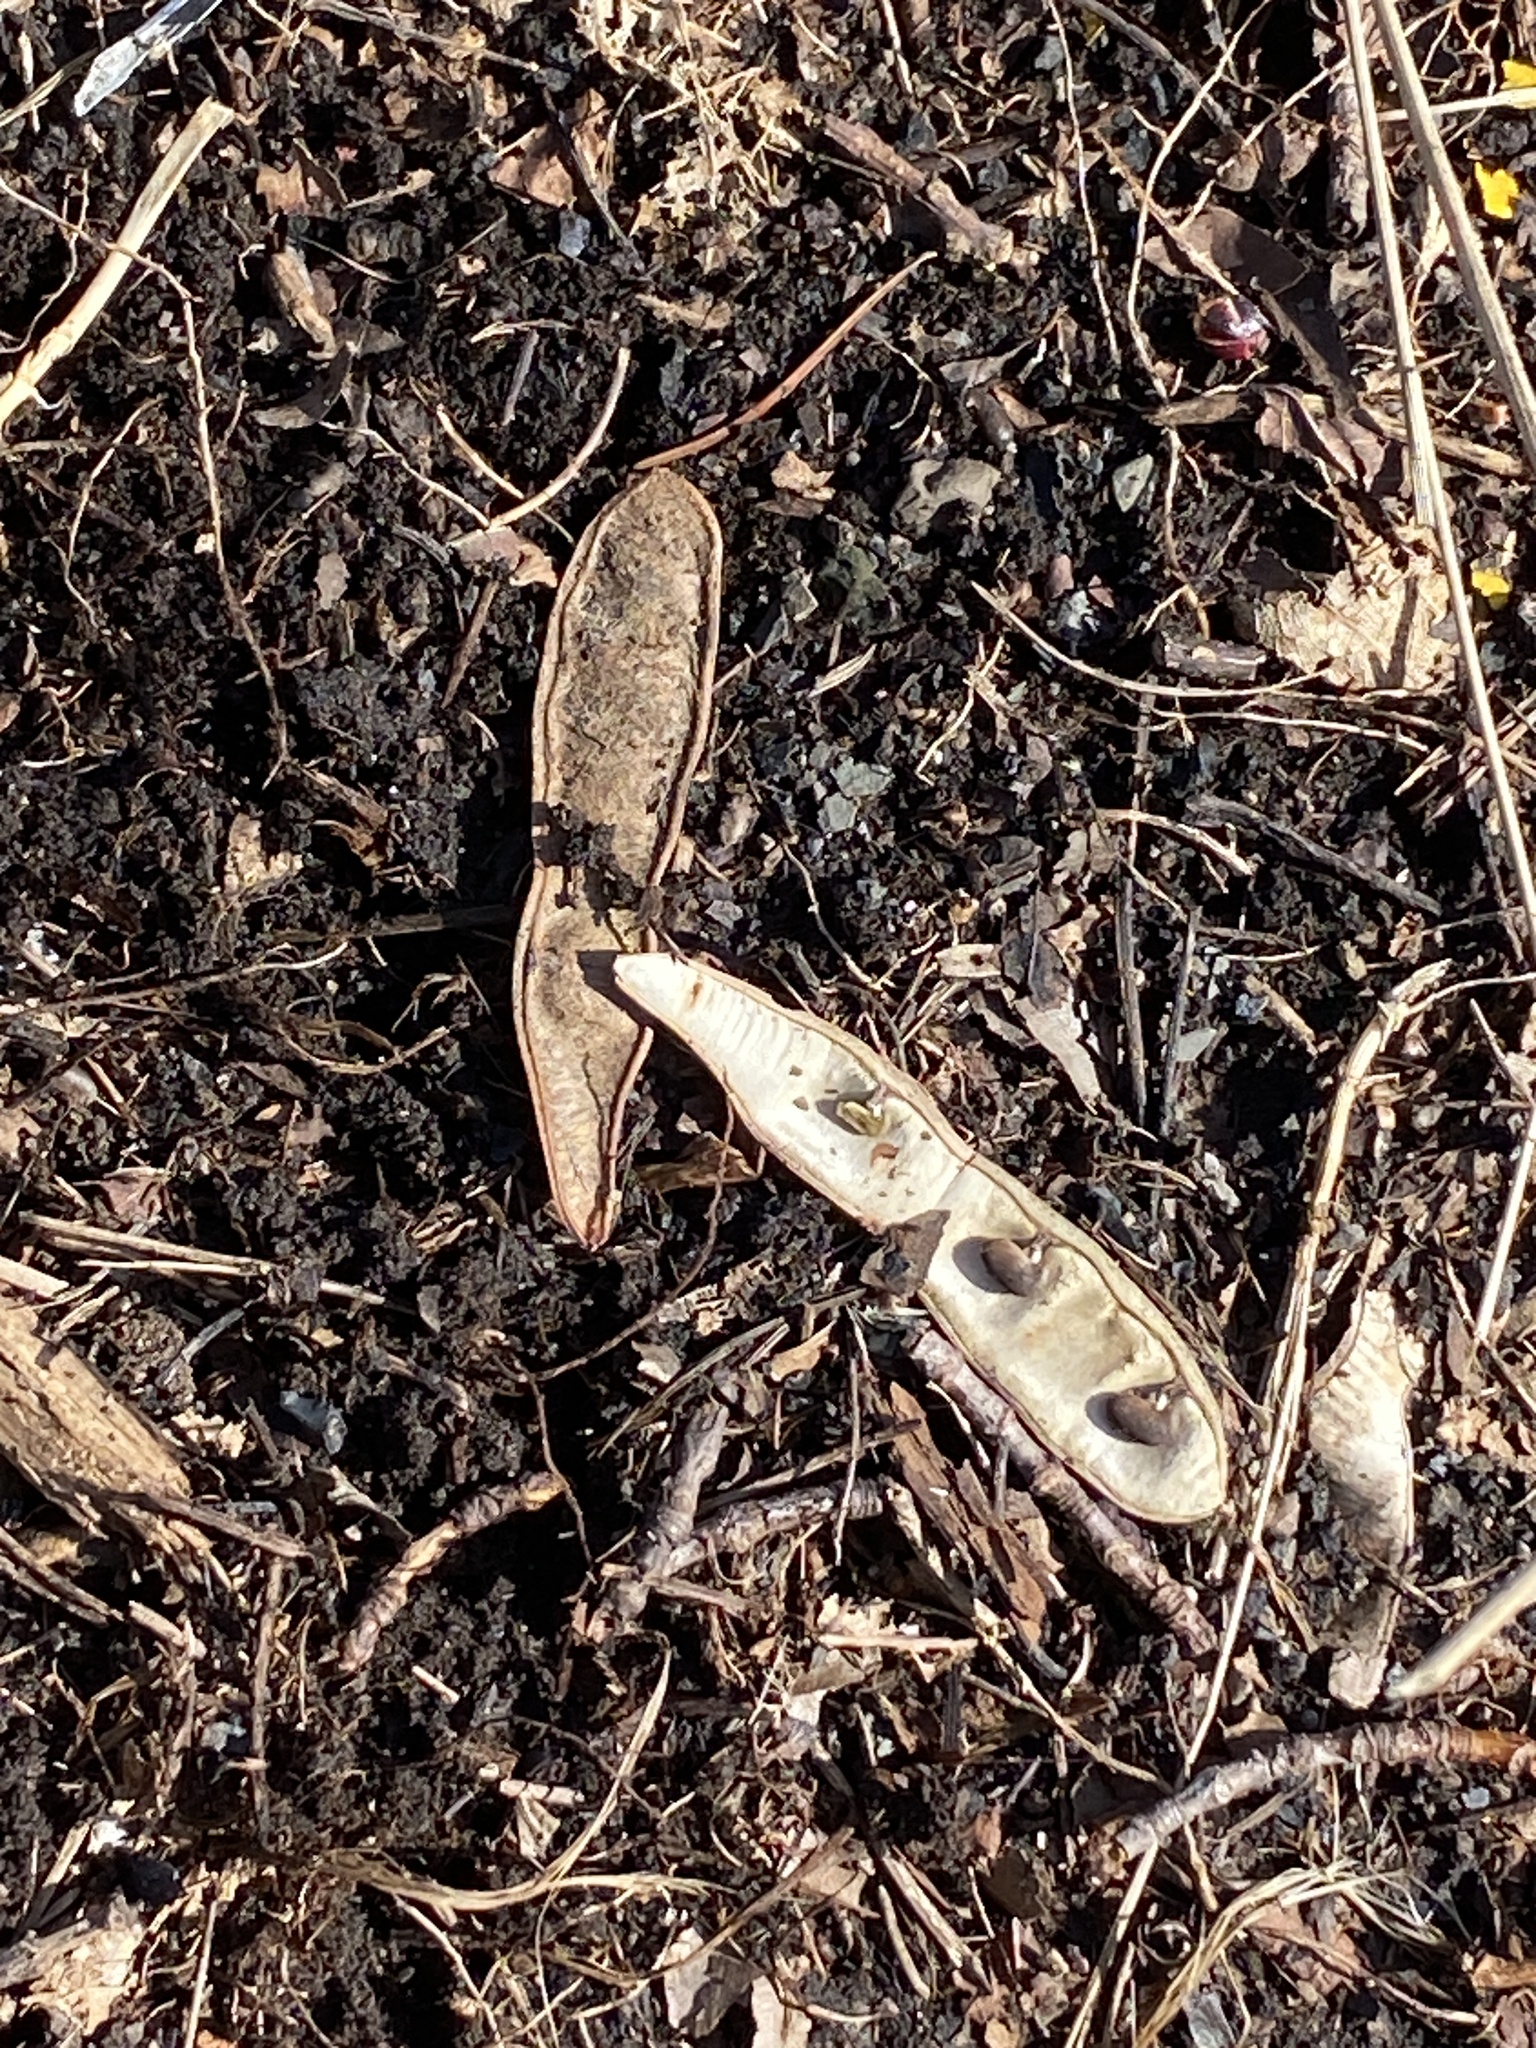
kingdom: Plantae
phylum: Tracheophyta
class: Magnoliopsida
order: Fabales
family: Fabaceae
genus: Robinia
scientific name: Robinia pseudoacacia
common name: Black locust
